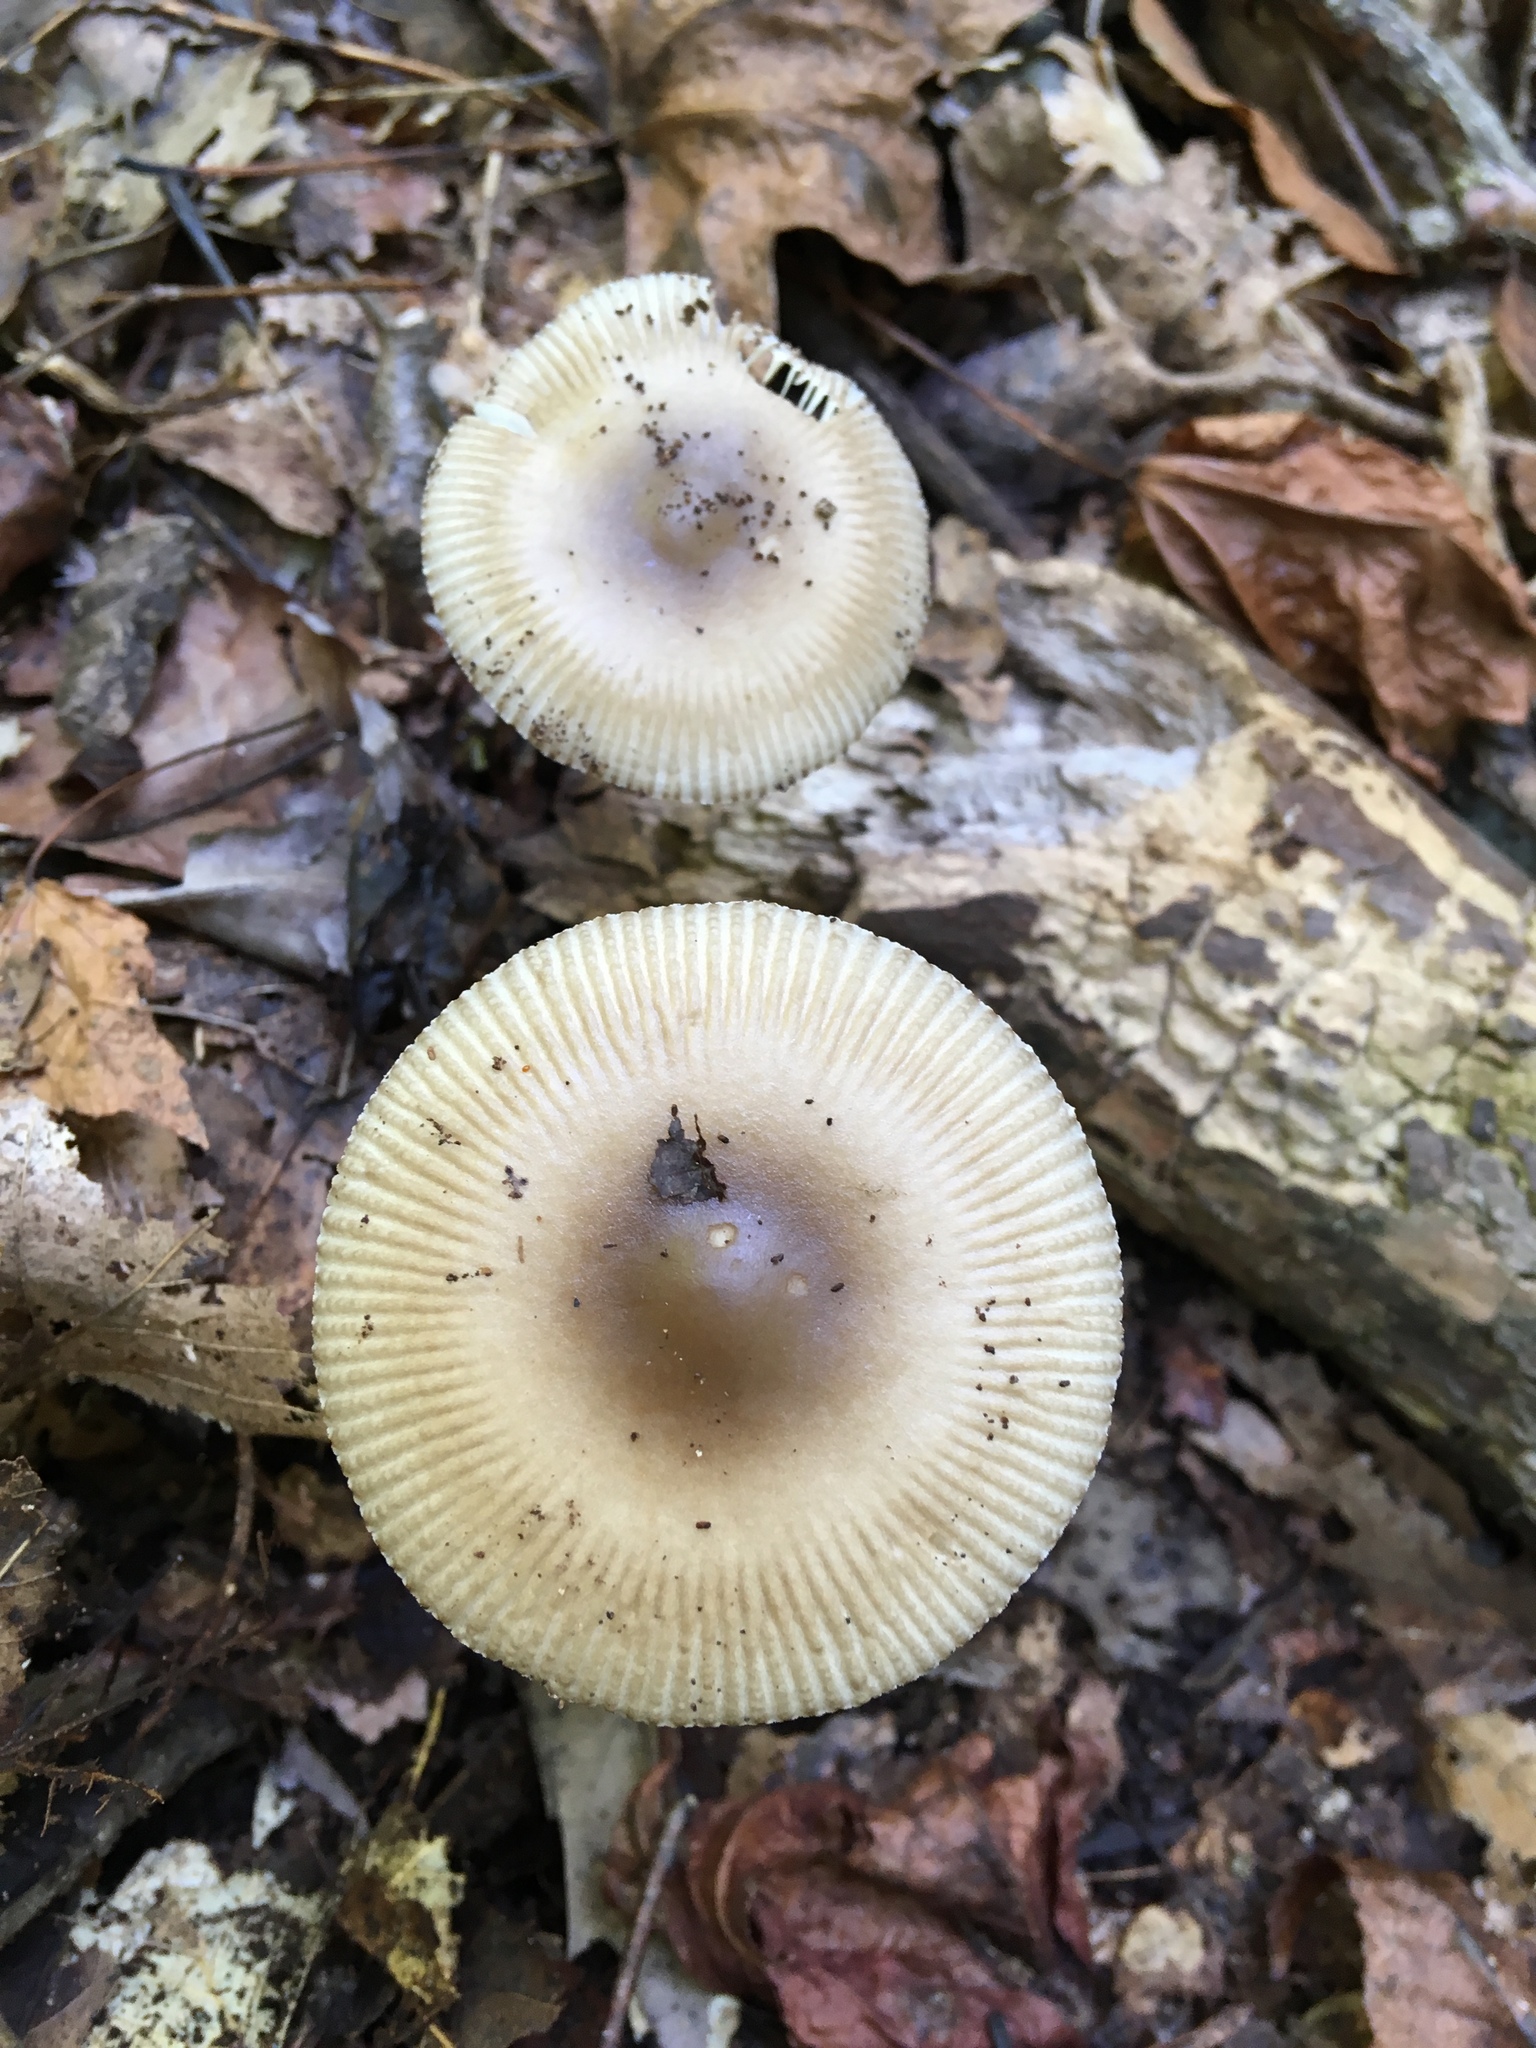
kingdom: Fungi
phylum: Basidiomycota
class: Agaricomycetes
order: Agaricales
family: Amanitaceae
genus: Amanita
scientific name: Amanita vaginata
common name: Grisette
